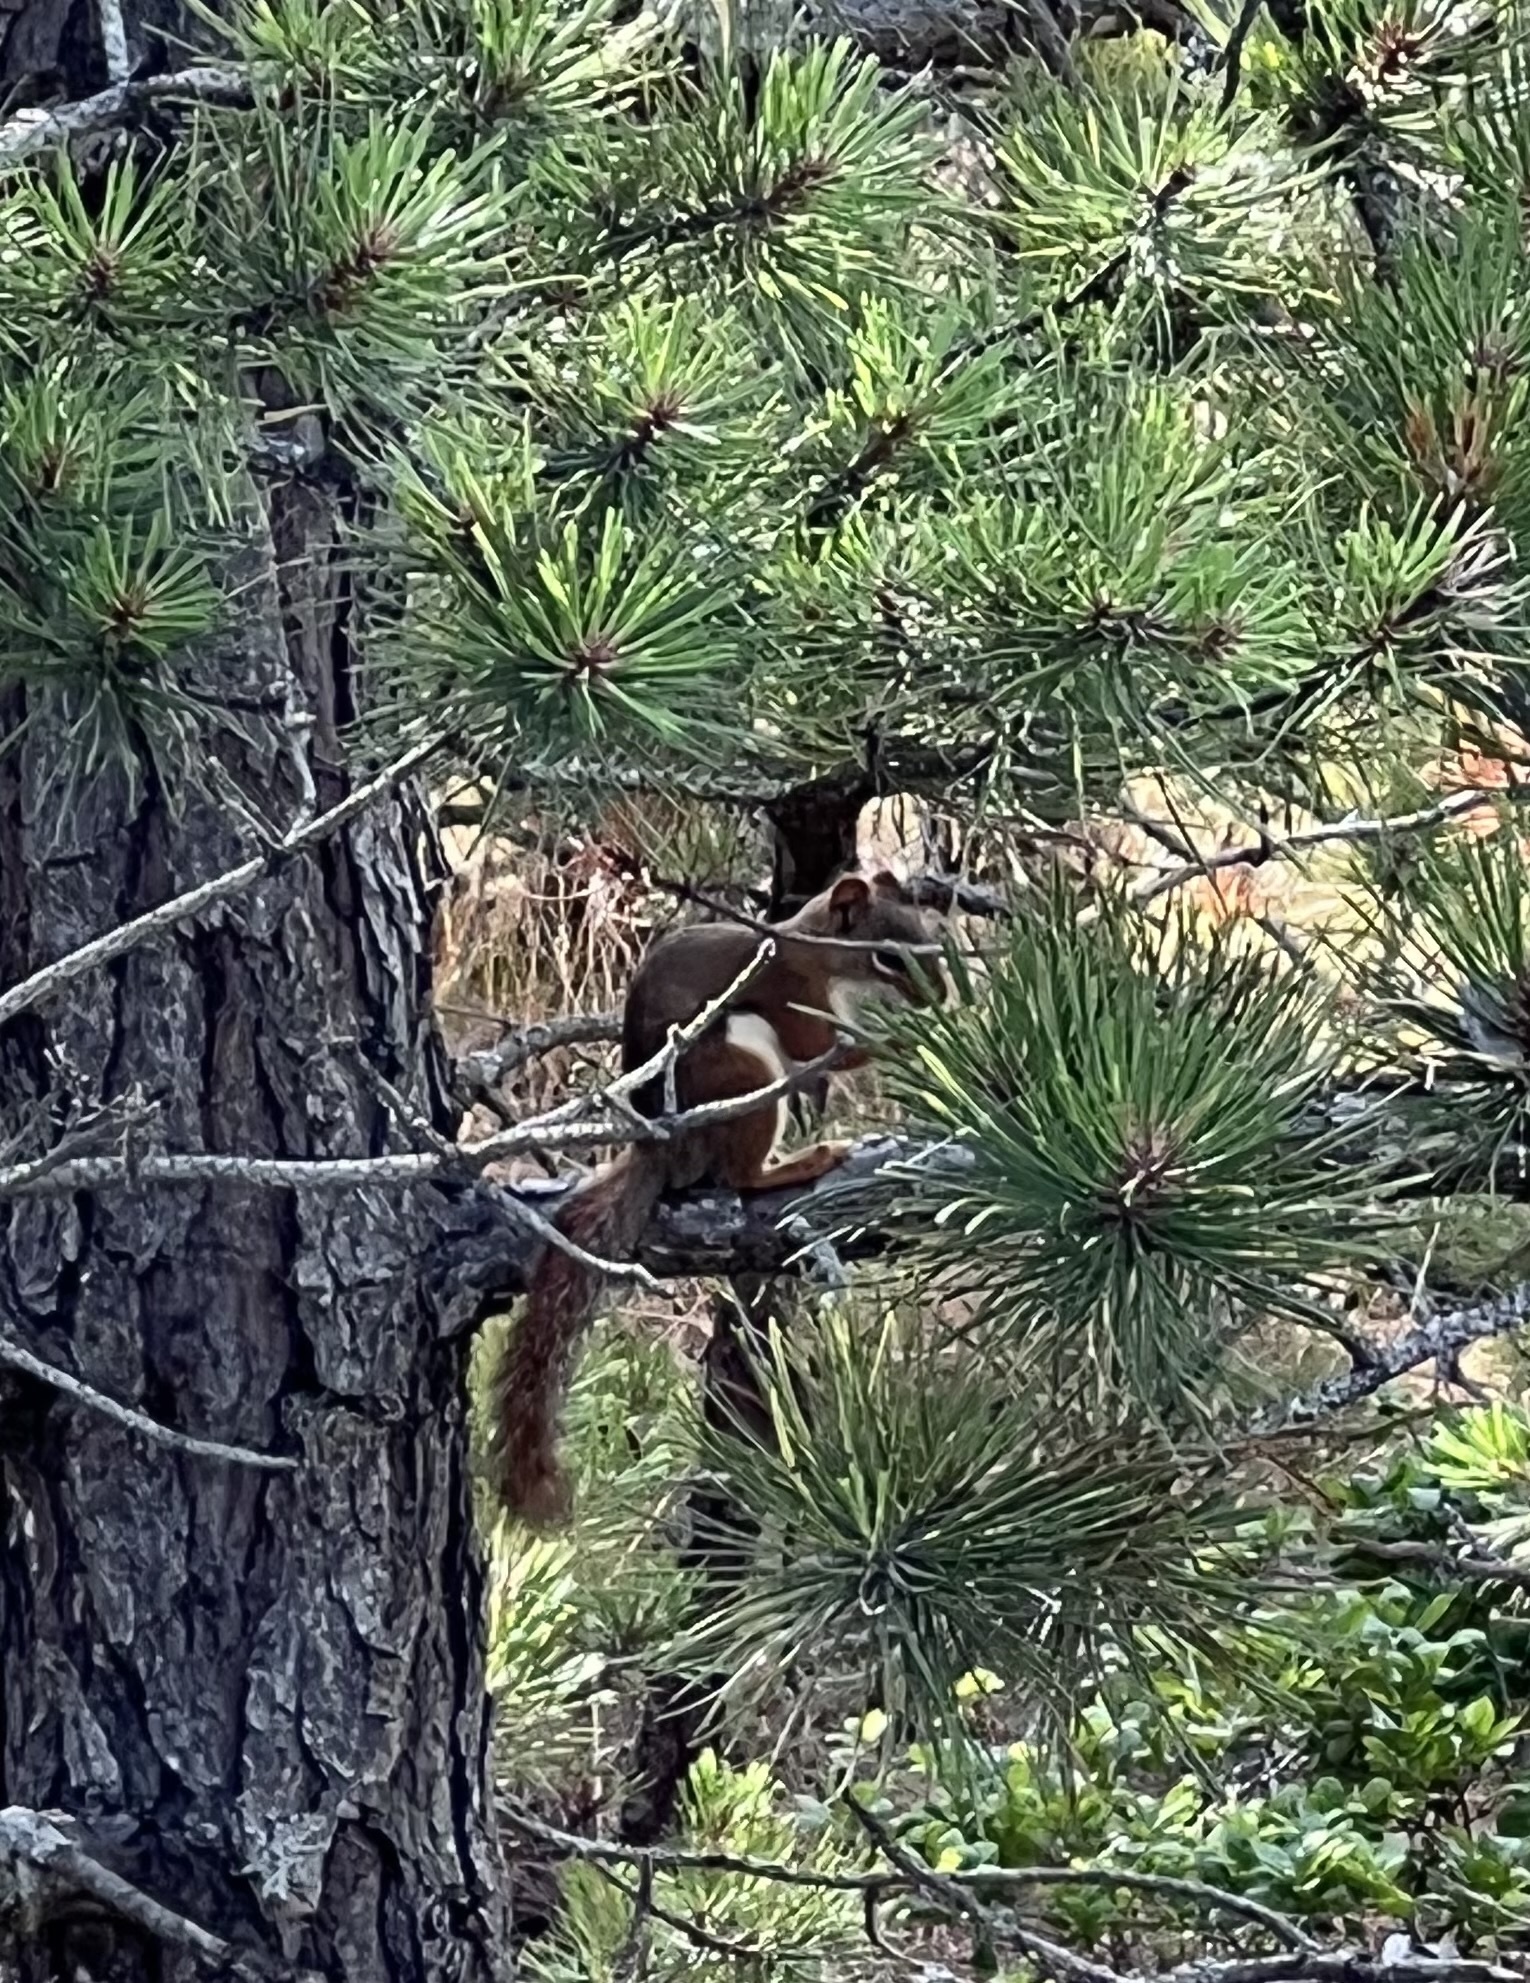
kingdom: Animalia
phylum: Chordata
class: Mammalia
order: Rodentia
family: Sciuridae
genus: Tamiasciurus
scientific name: Tamiasciurus hudsonicus
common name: Red squirrel
